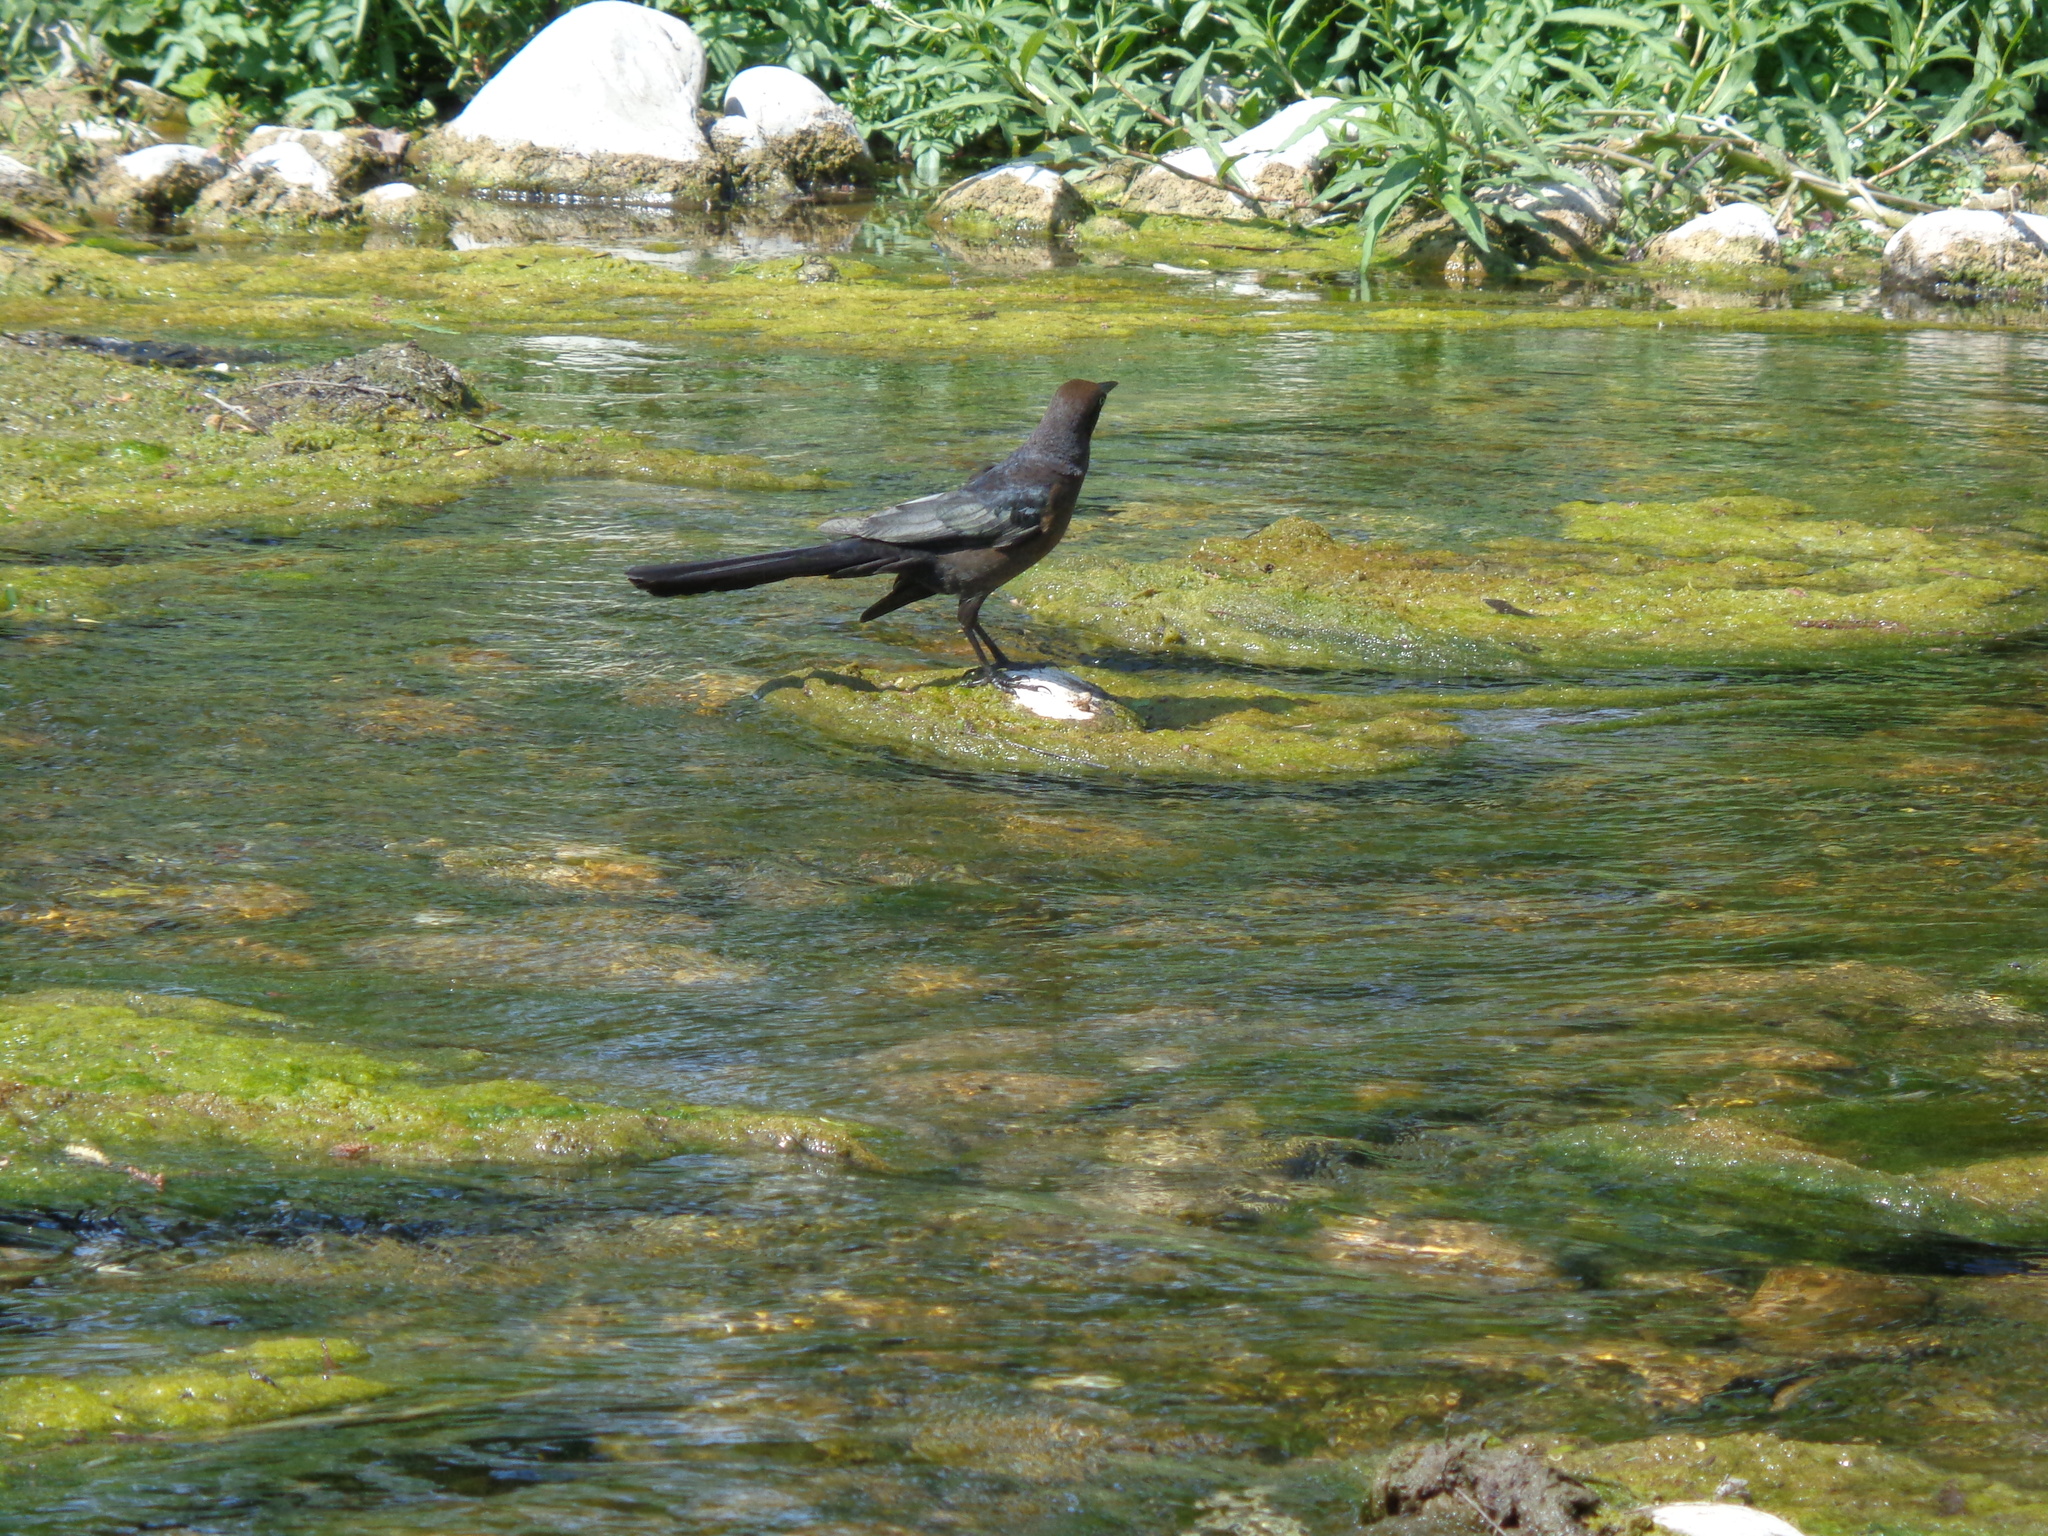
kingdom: Animalia
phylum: Chordata
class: Aves
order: Passeriformes
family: Icteridae
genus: Quiscalus
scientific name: Quiscalus mexicanus
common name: Great-tailed grackle
